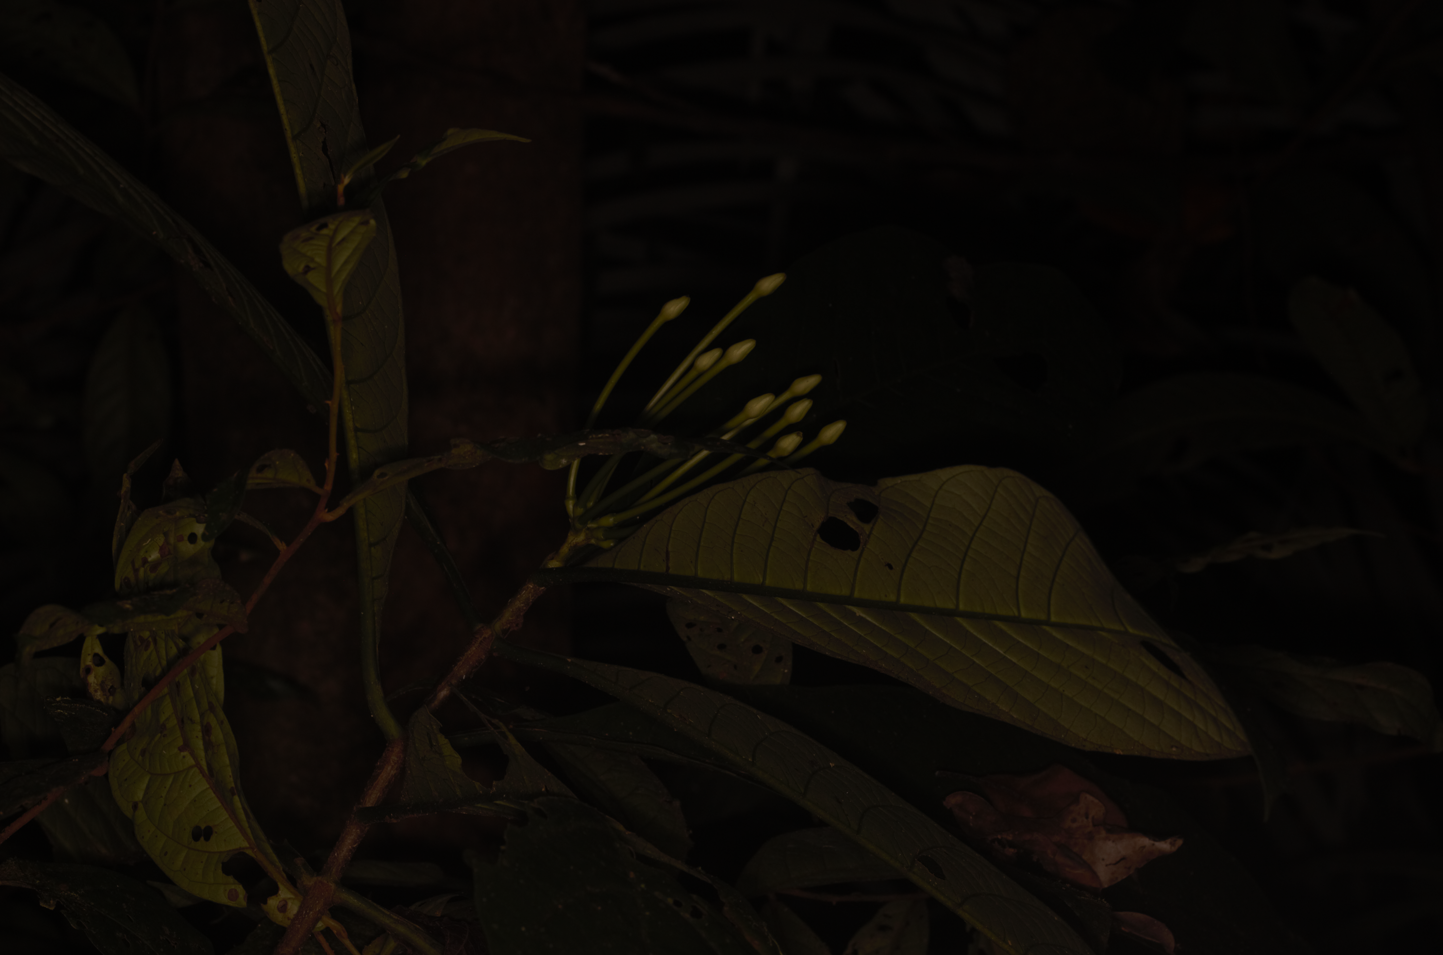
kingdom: Plantae
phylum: Tracheophyta
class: Magnoliopsida
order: Gentianales
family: Rubiaceae
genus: Tocoyena
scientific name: Tocoyena longiflora
